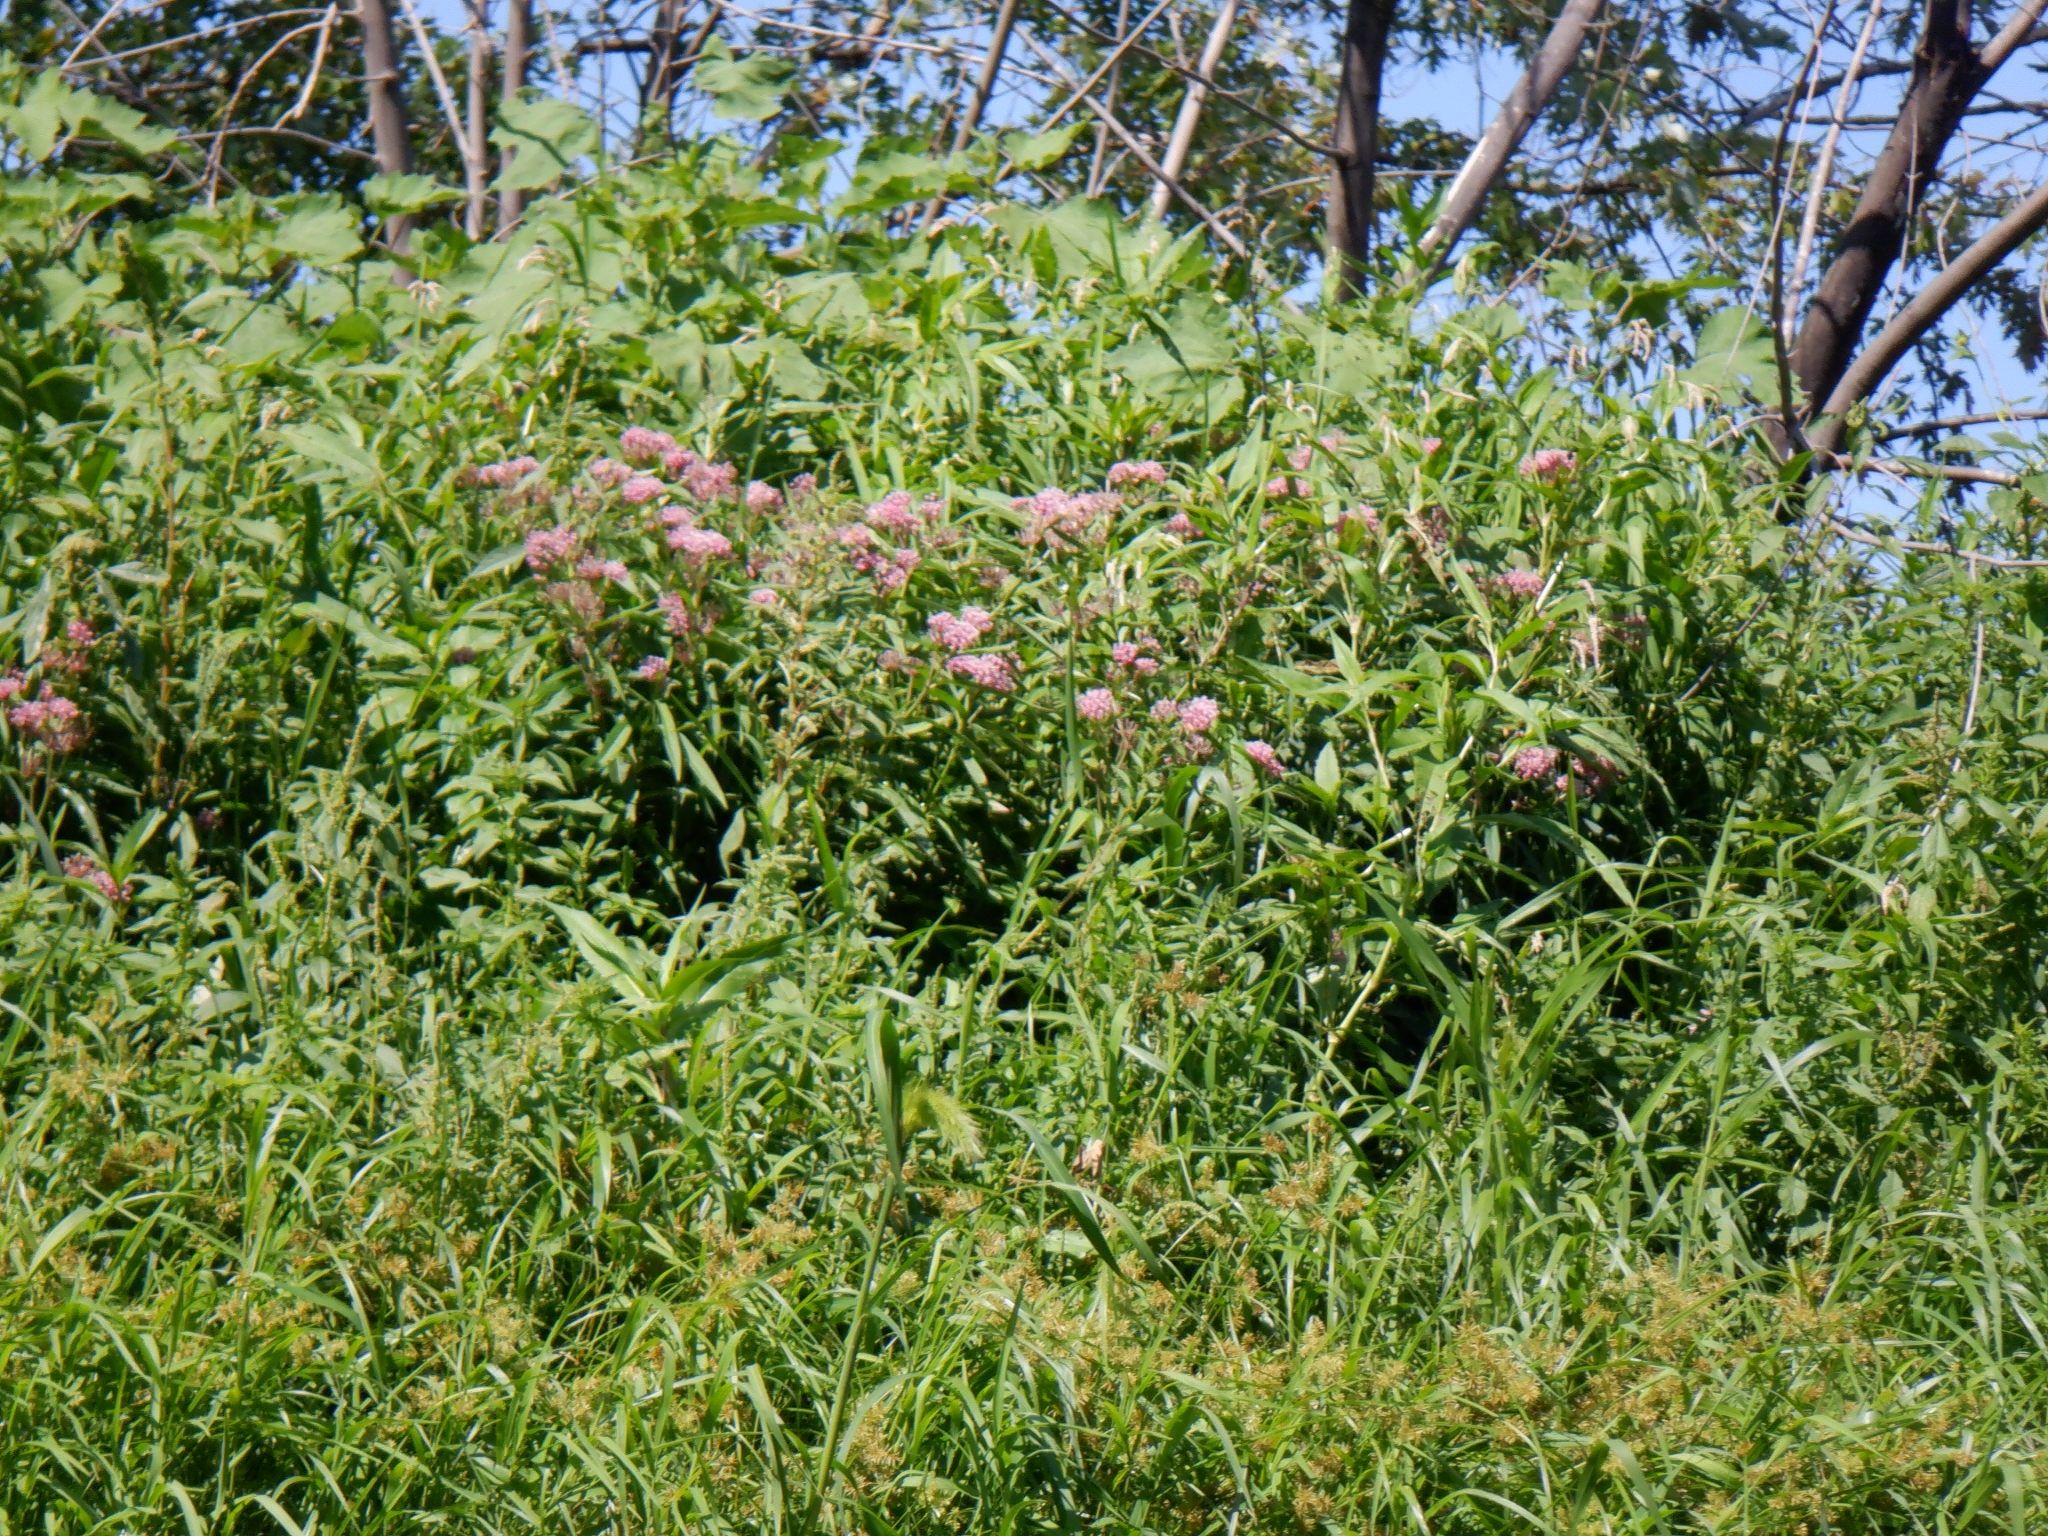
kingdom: Plantae
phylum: Tracheophyta
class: Magnoliopsida
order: Gentianales
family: Apocynaceae
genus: Asclepias
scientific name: Asclepias incarnata
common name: Swamp milkweed
